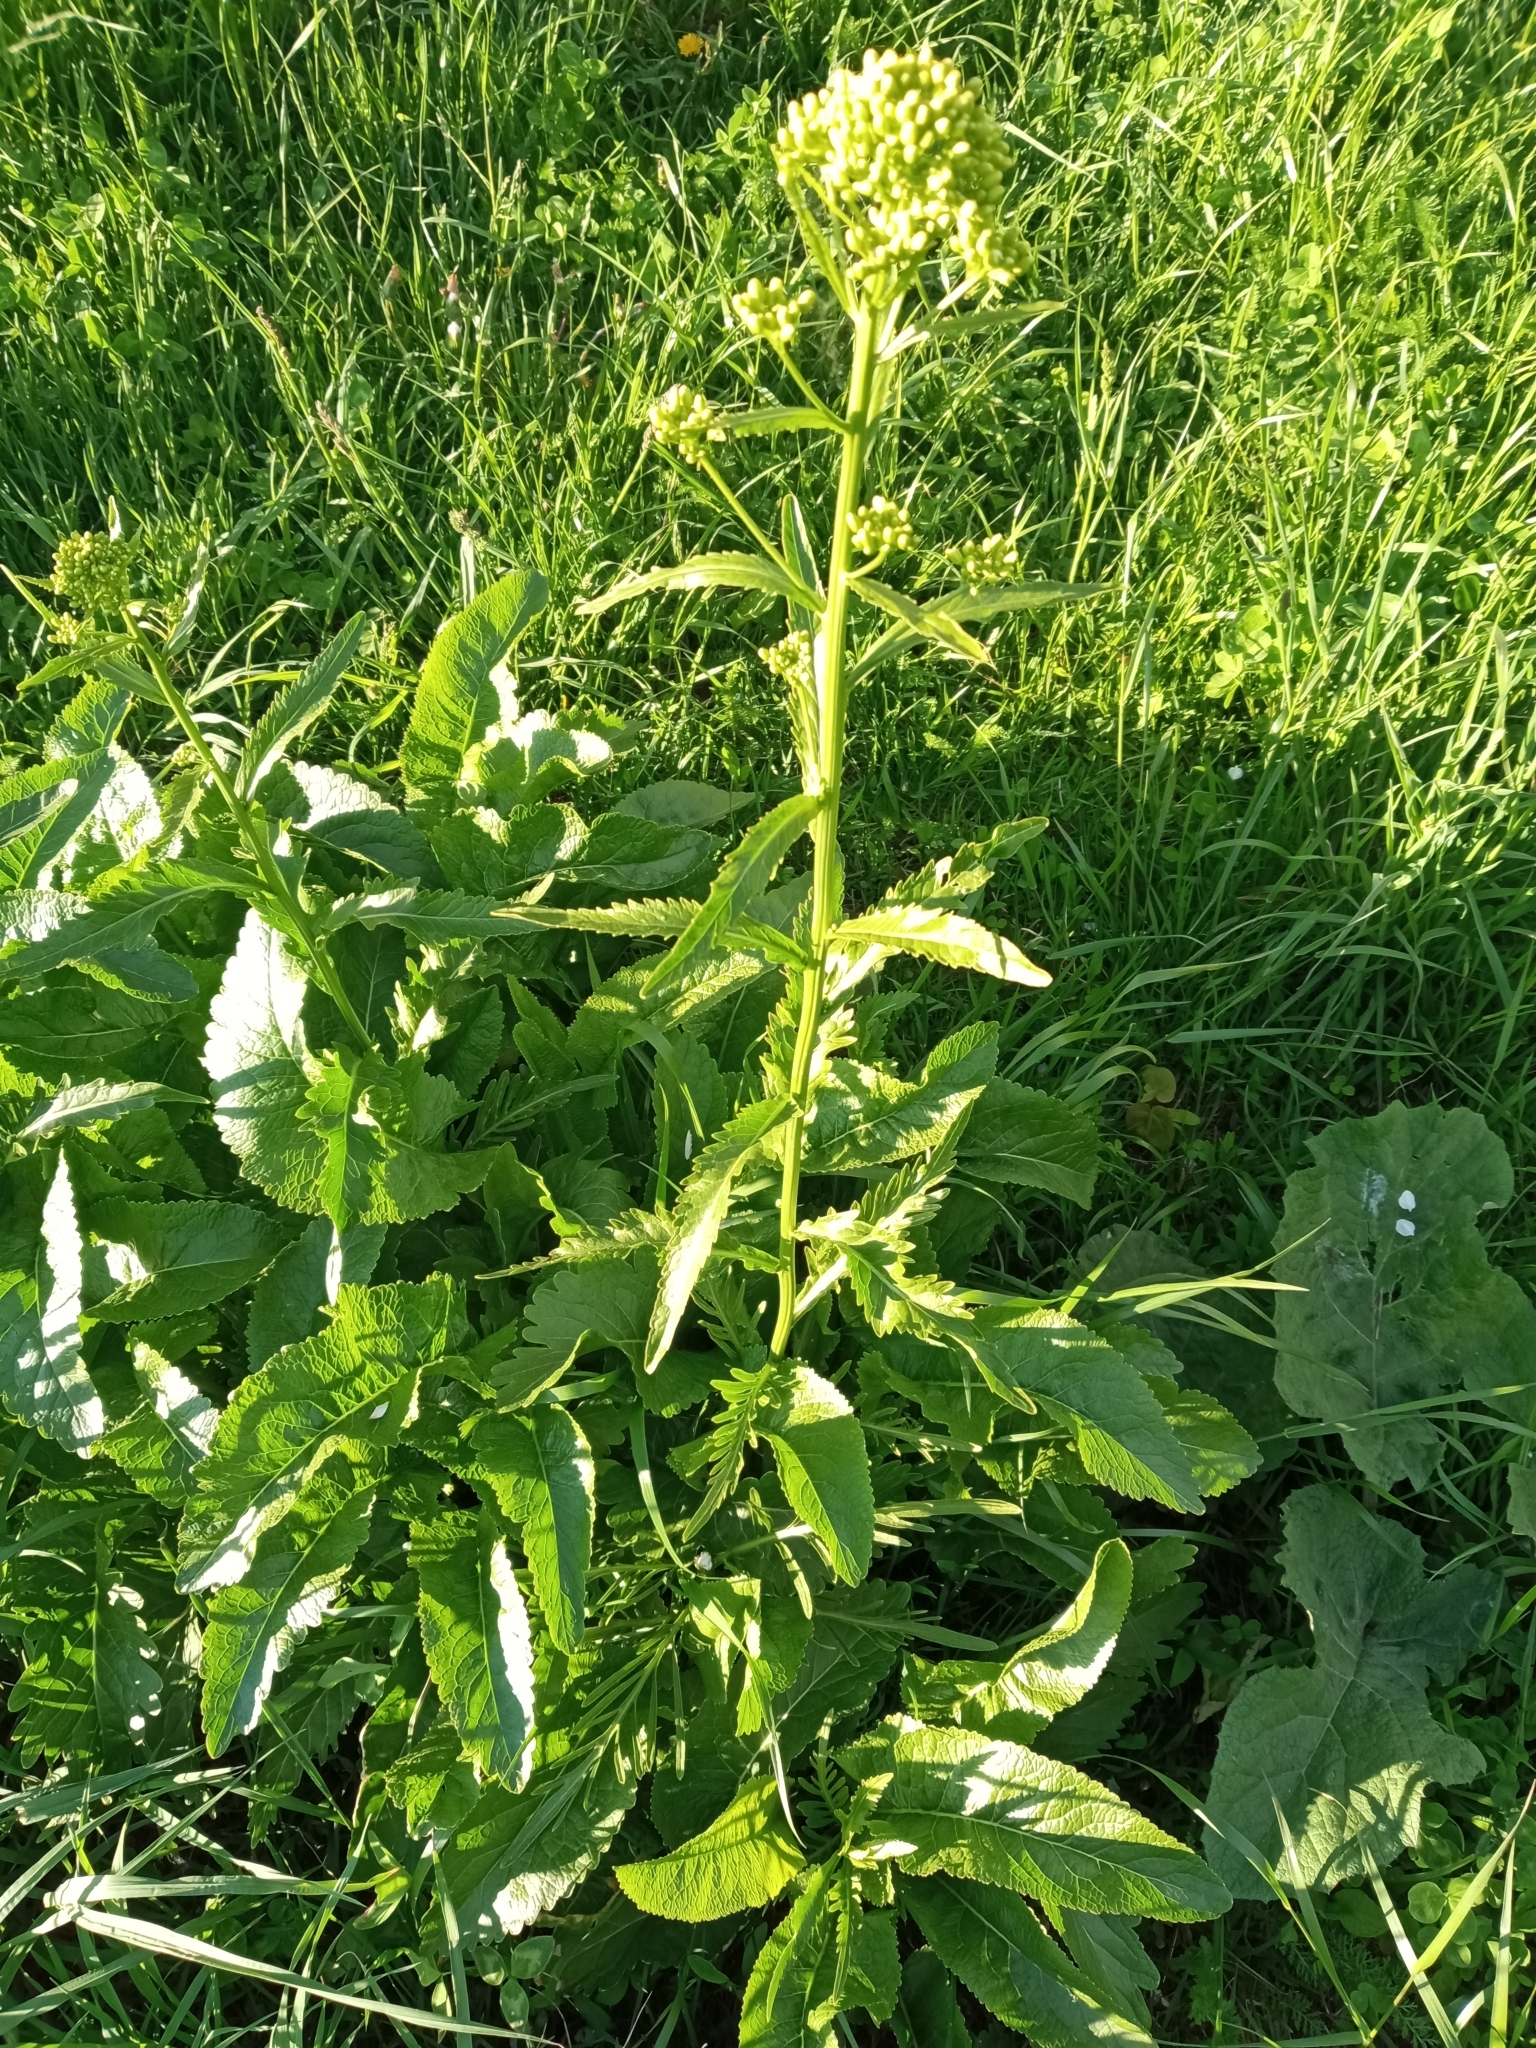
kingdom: Plantae
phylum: Tracheophyta
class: Magnoliopsida
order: Brassicales
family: Brassicaceae
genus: Armoracia
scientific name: Armoracia rusticana
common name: Horseradish
